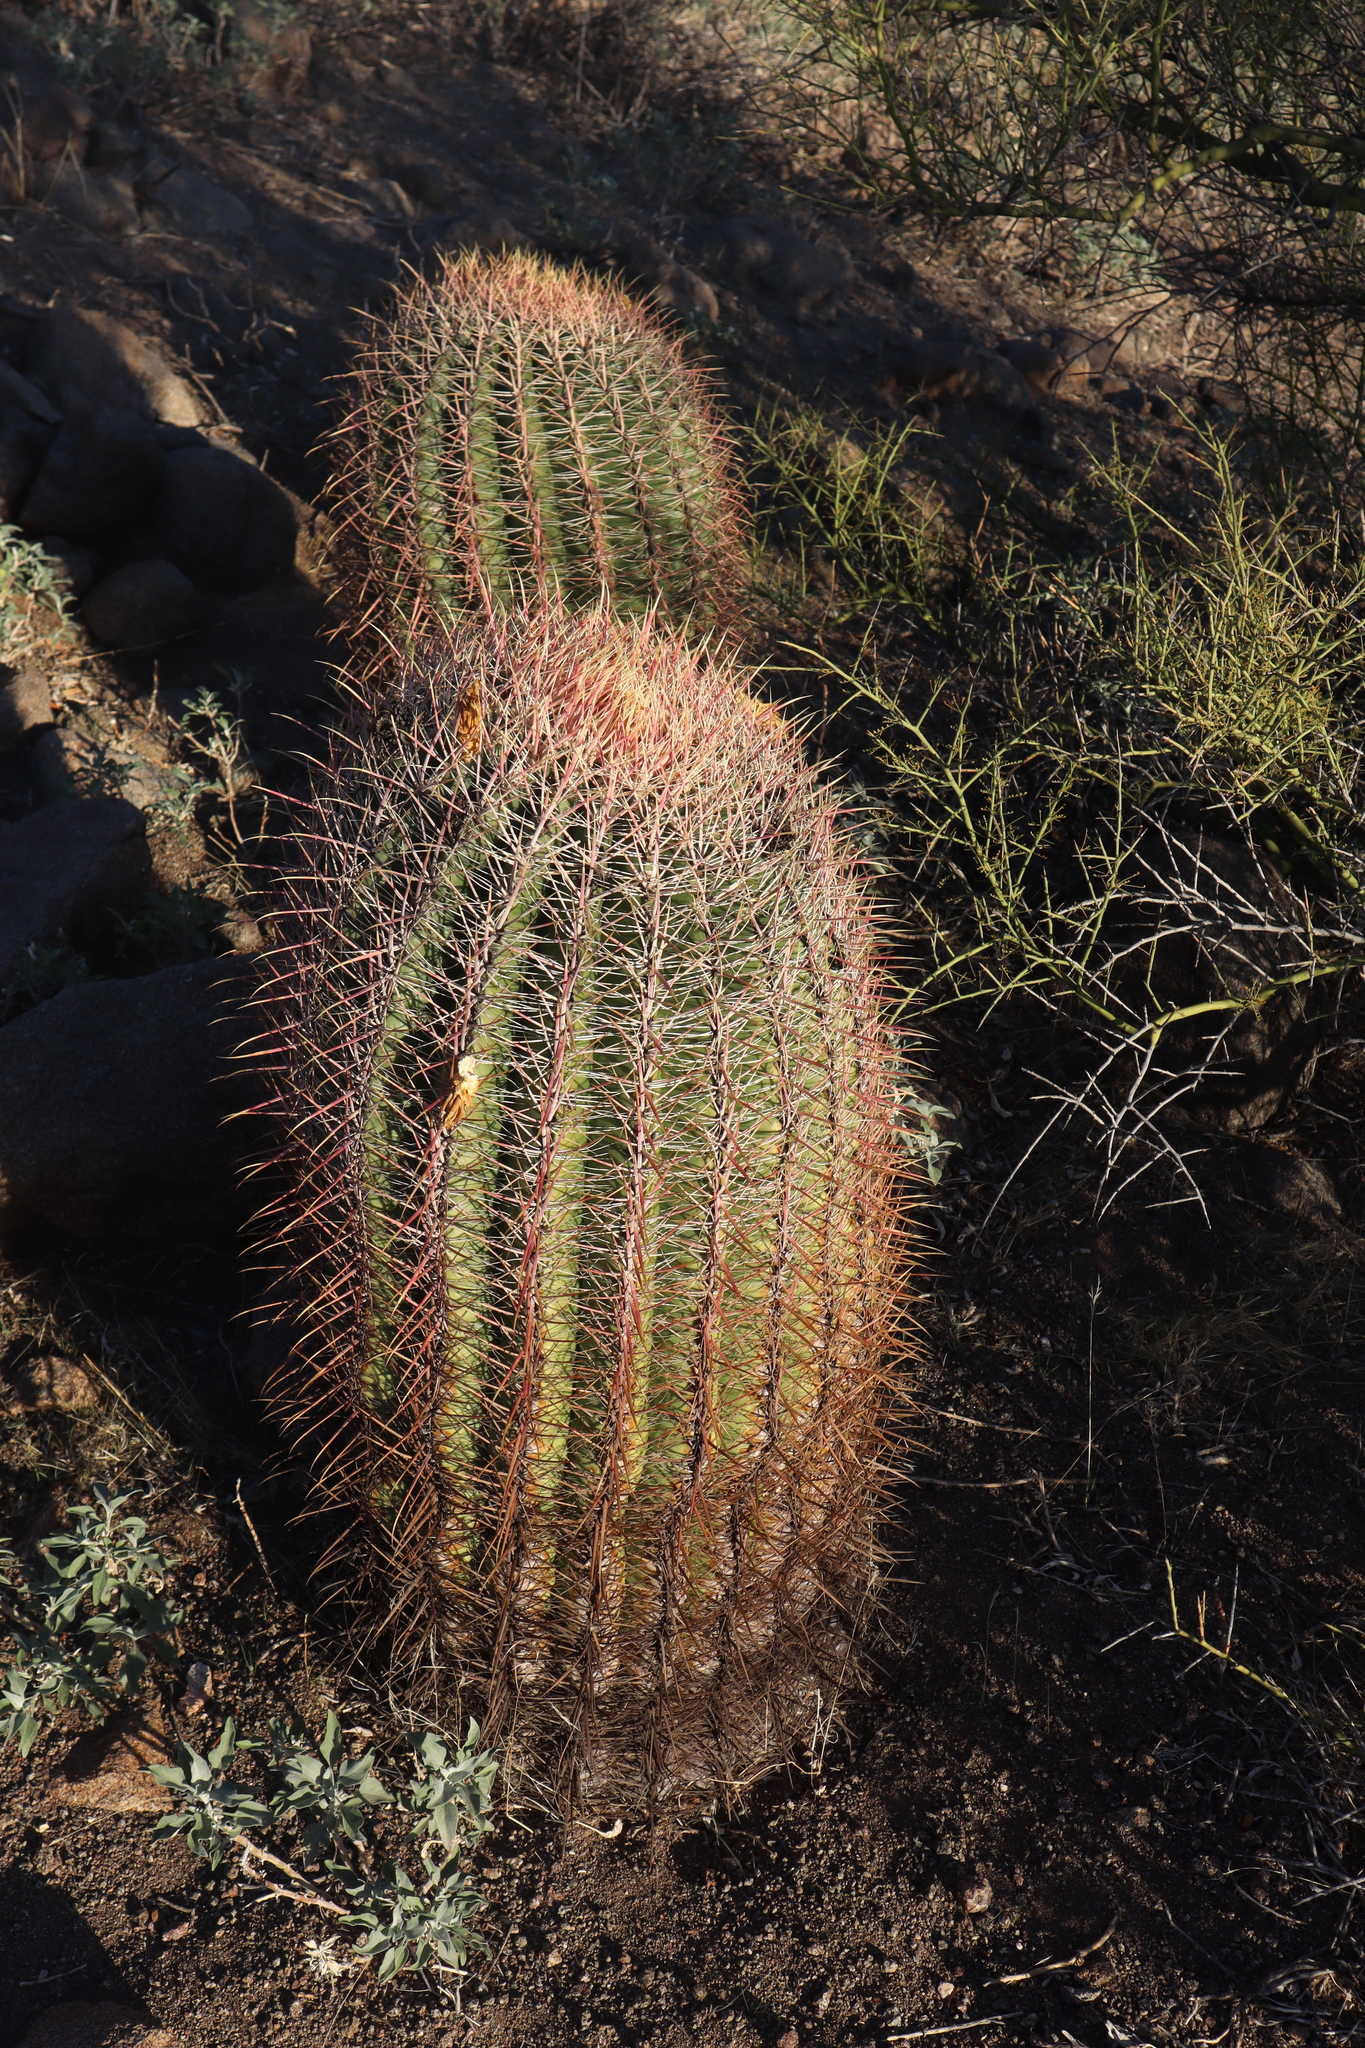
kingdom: Plantae
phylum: Tracheophyta
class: Magnoliopsida
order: Caryophyllales
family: Cactaceae
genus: Ferocactus
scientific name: Ferocactus cylindraceus
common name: California barrel cactus
